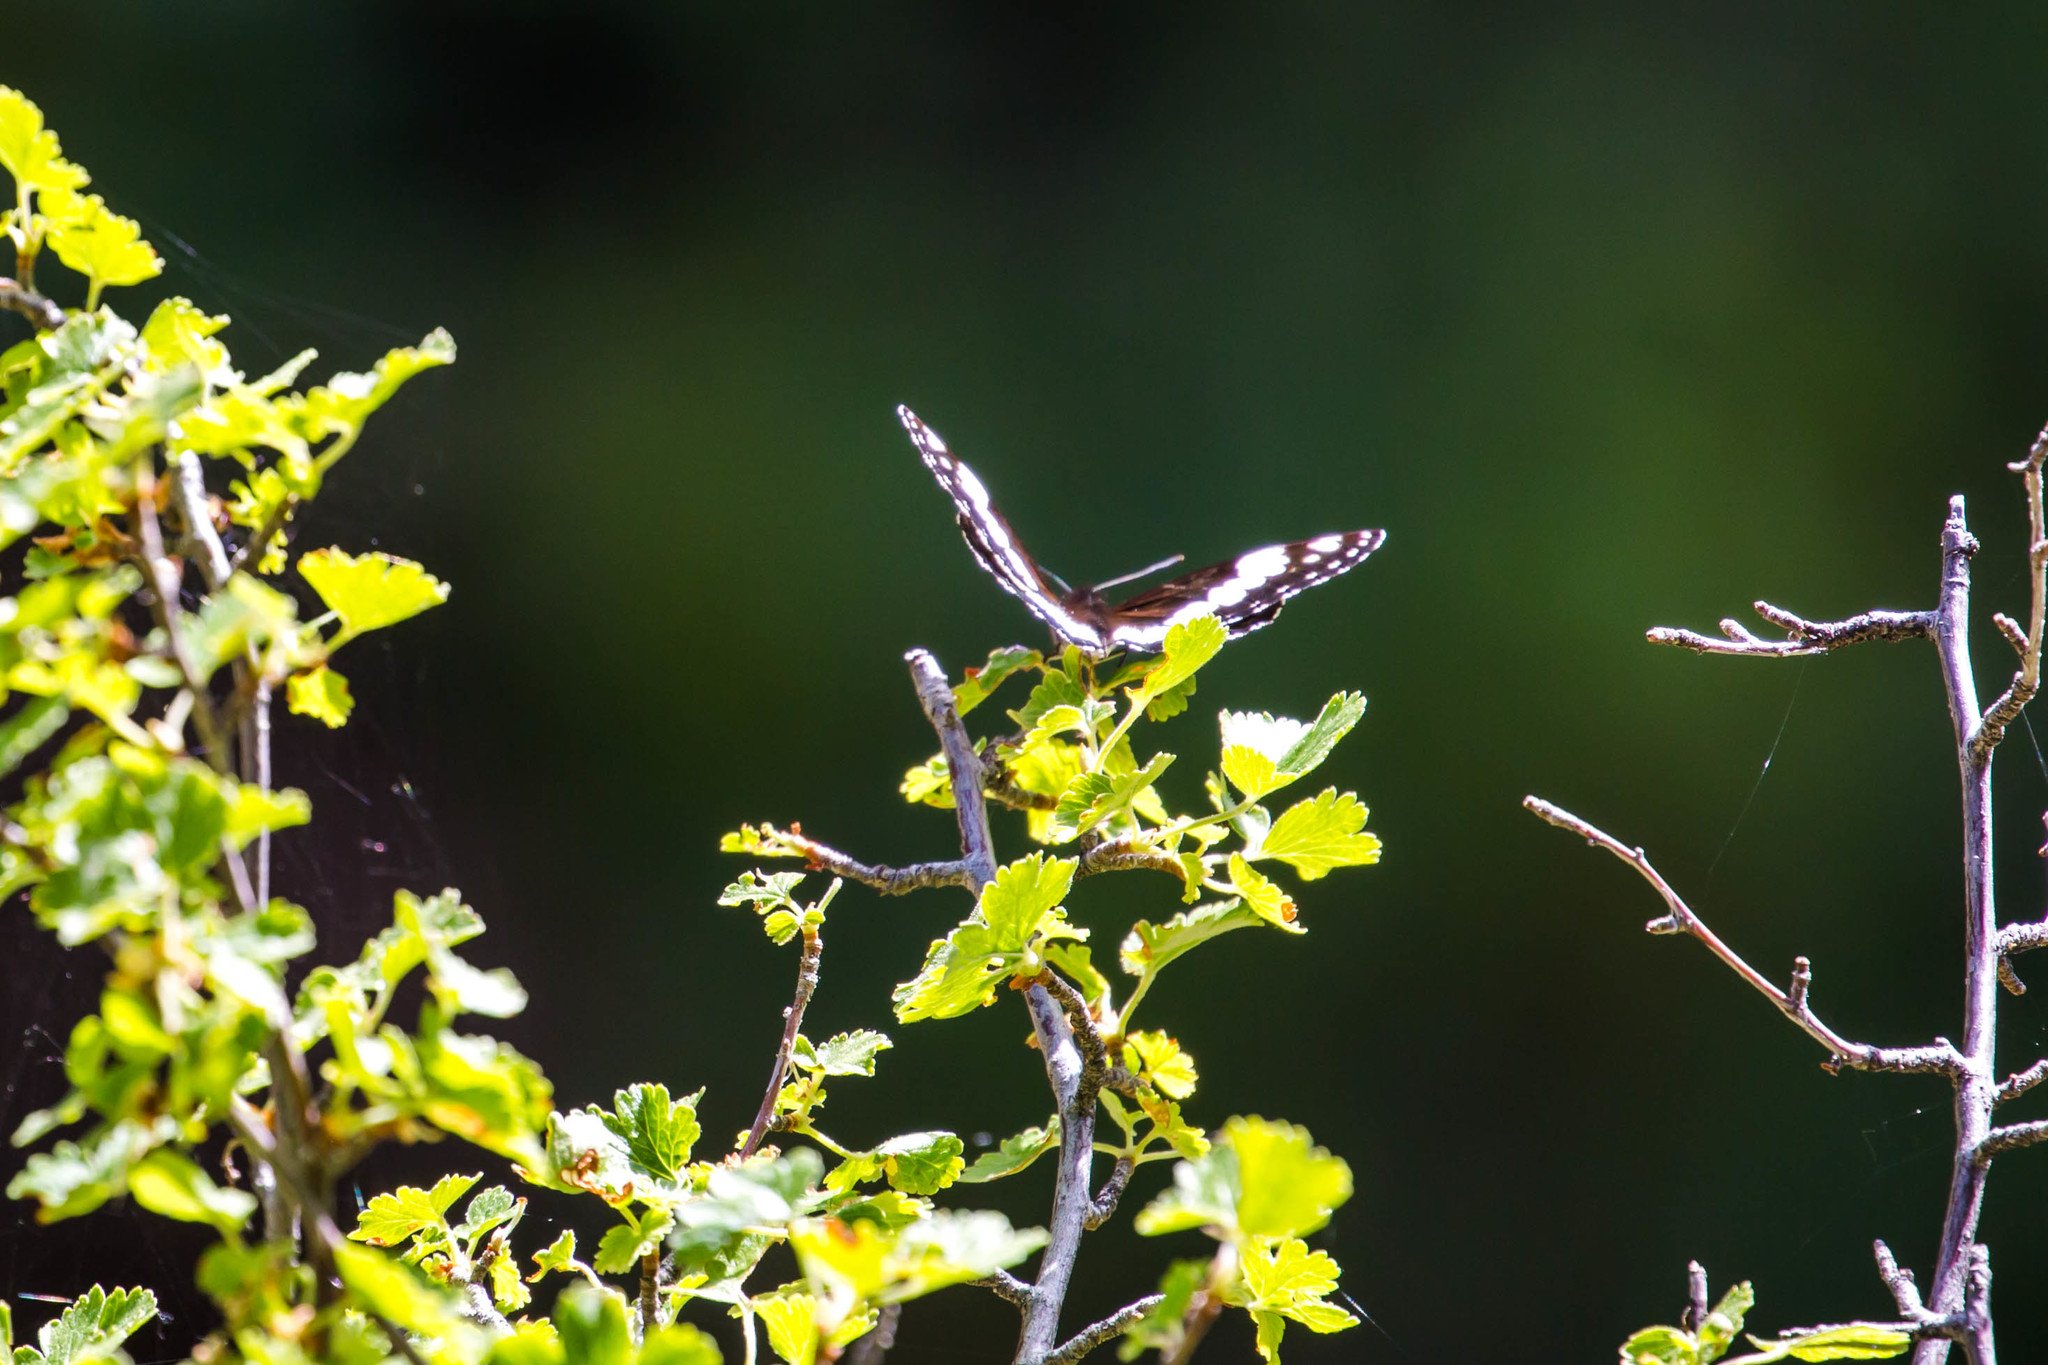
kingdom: Animalia
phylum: Arthropoda
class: Insecta
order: Lepidoptera
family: Nymphalidae
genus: Limenitis
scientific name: Limenitis weidemeyerii
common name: Weidemeyer's admiral
